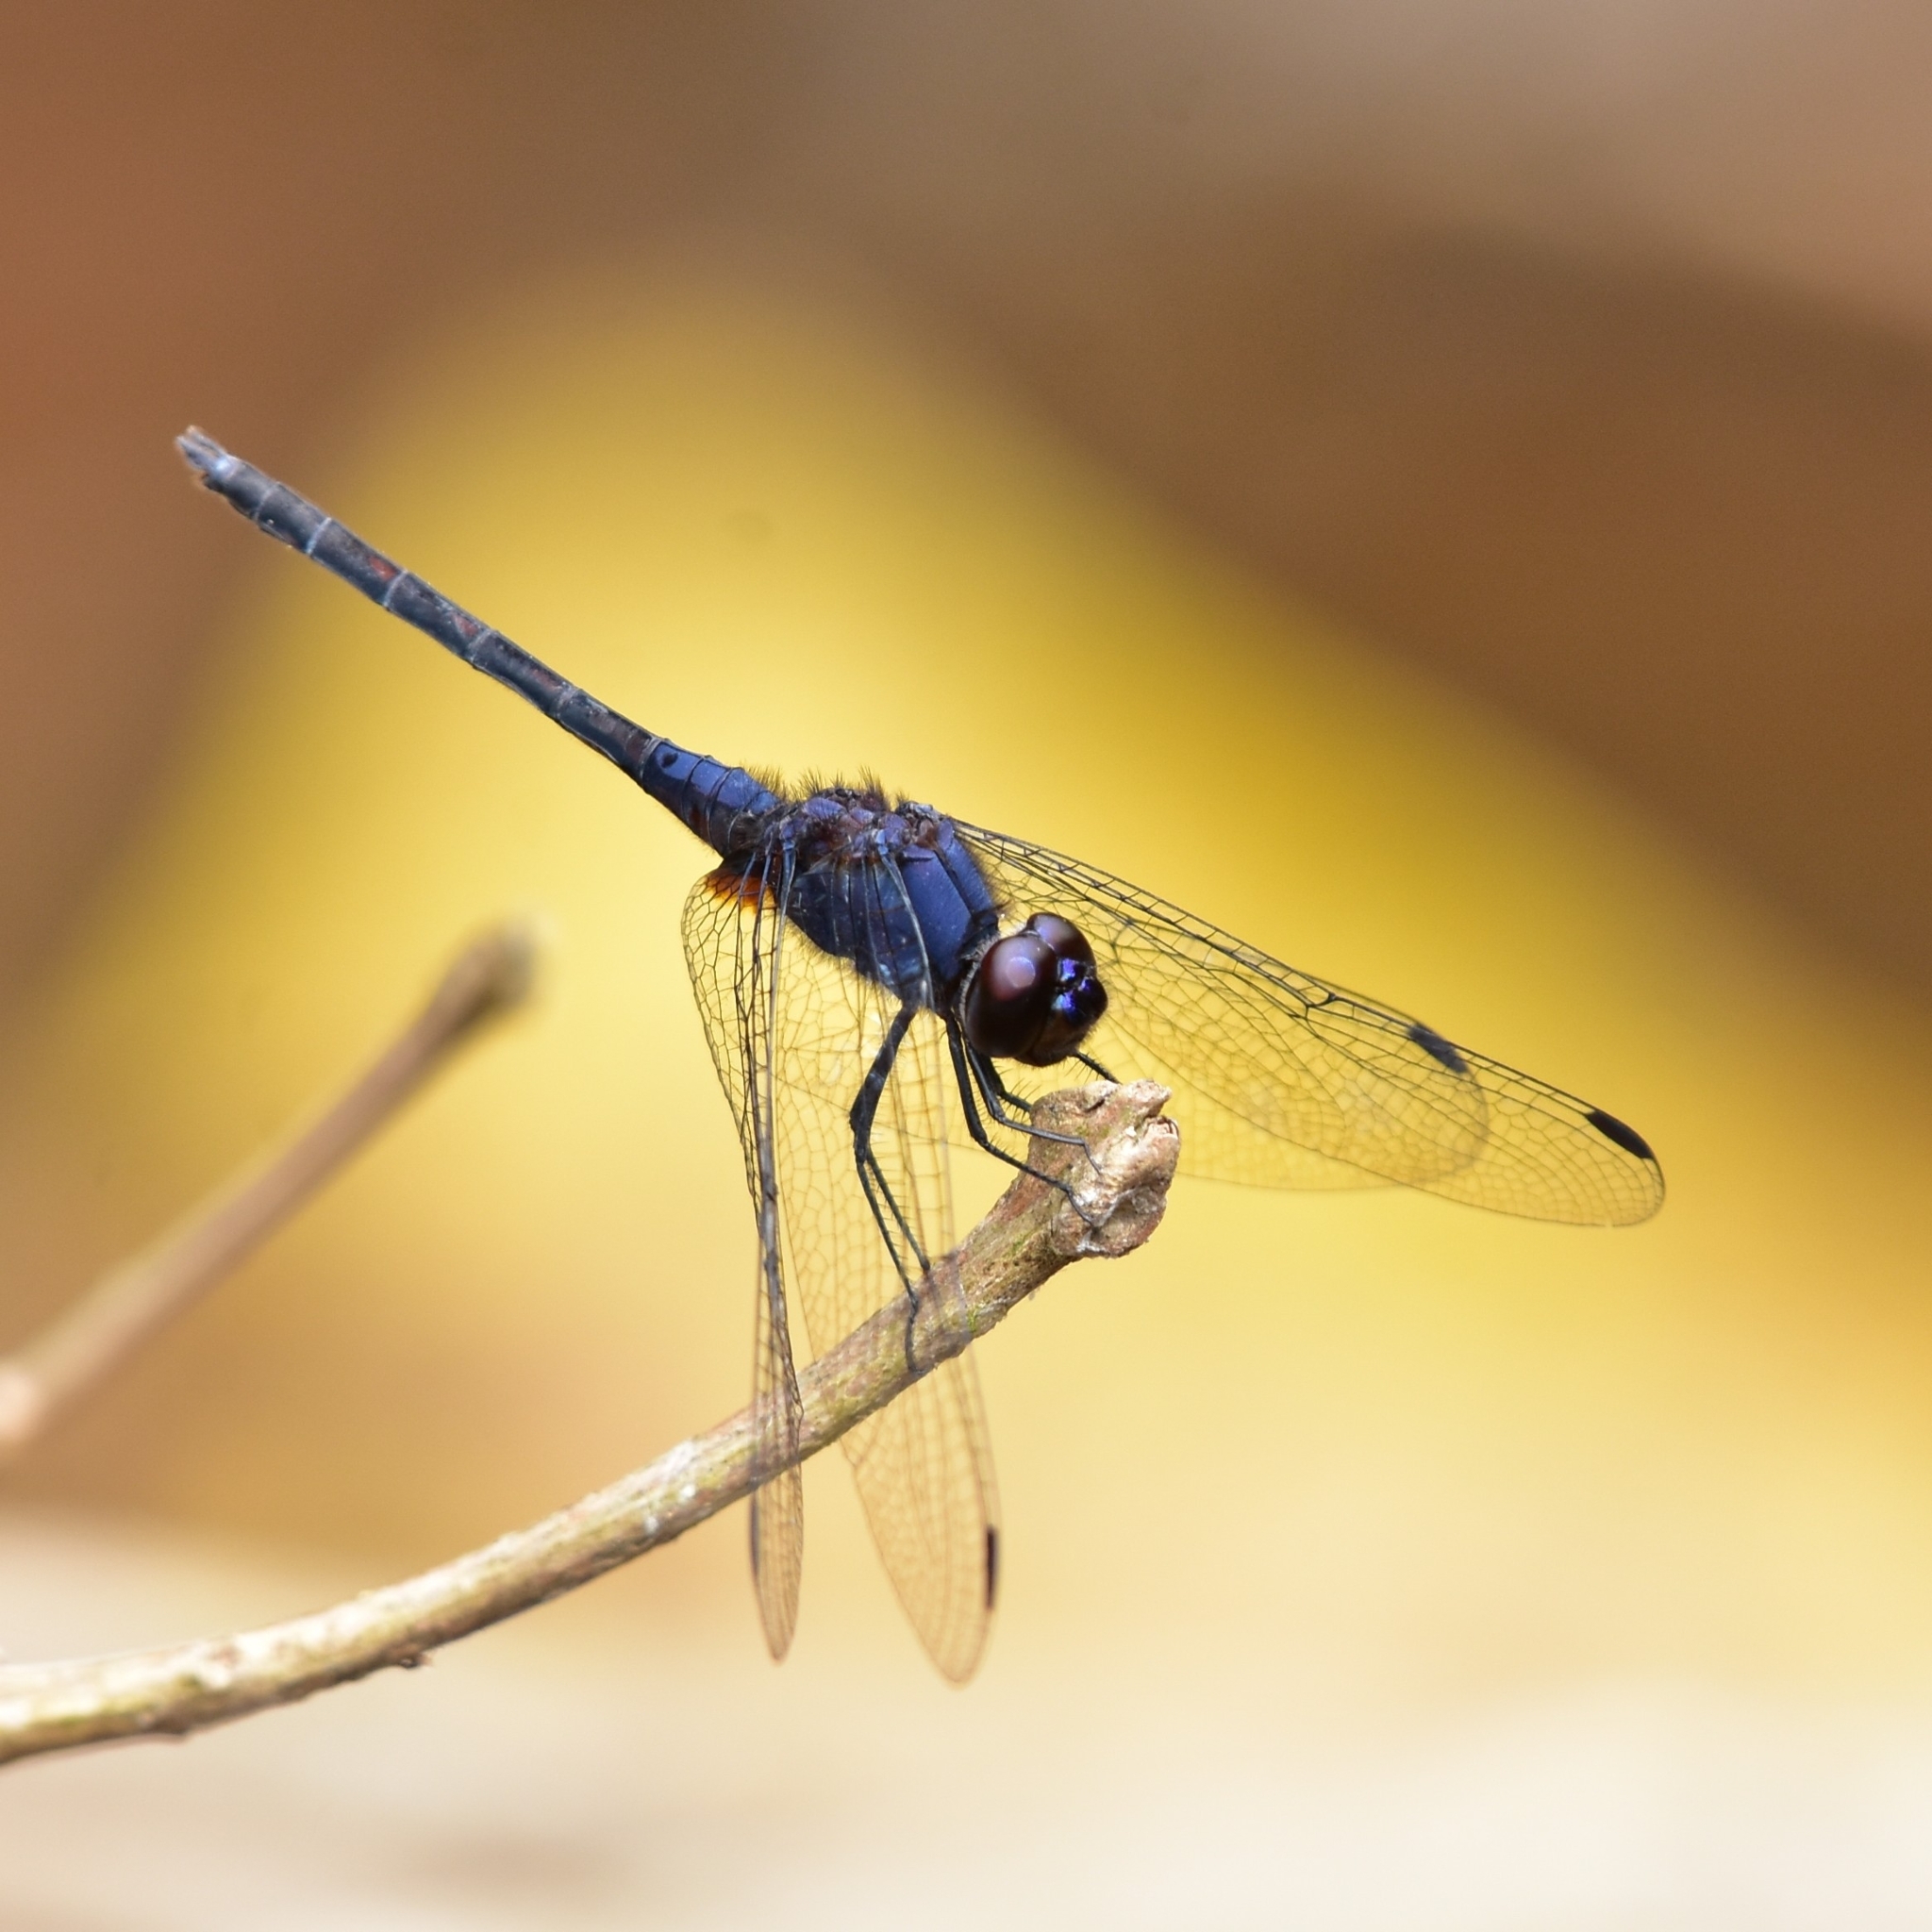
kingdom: Animalia
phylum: Arthropoda
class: Insecta
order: Odonata
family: Libellulidae
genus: Trithemis
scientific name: Trithemis festiva
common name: Indigo dropwing
